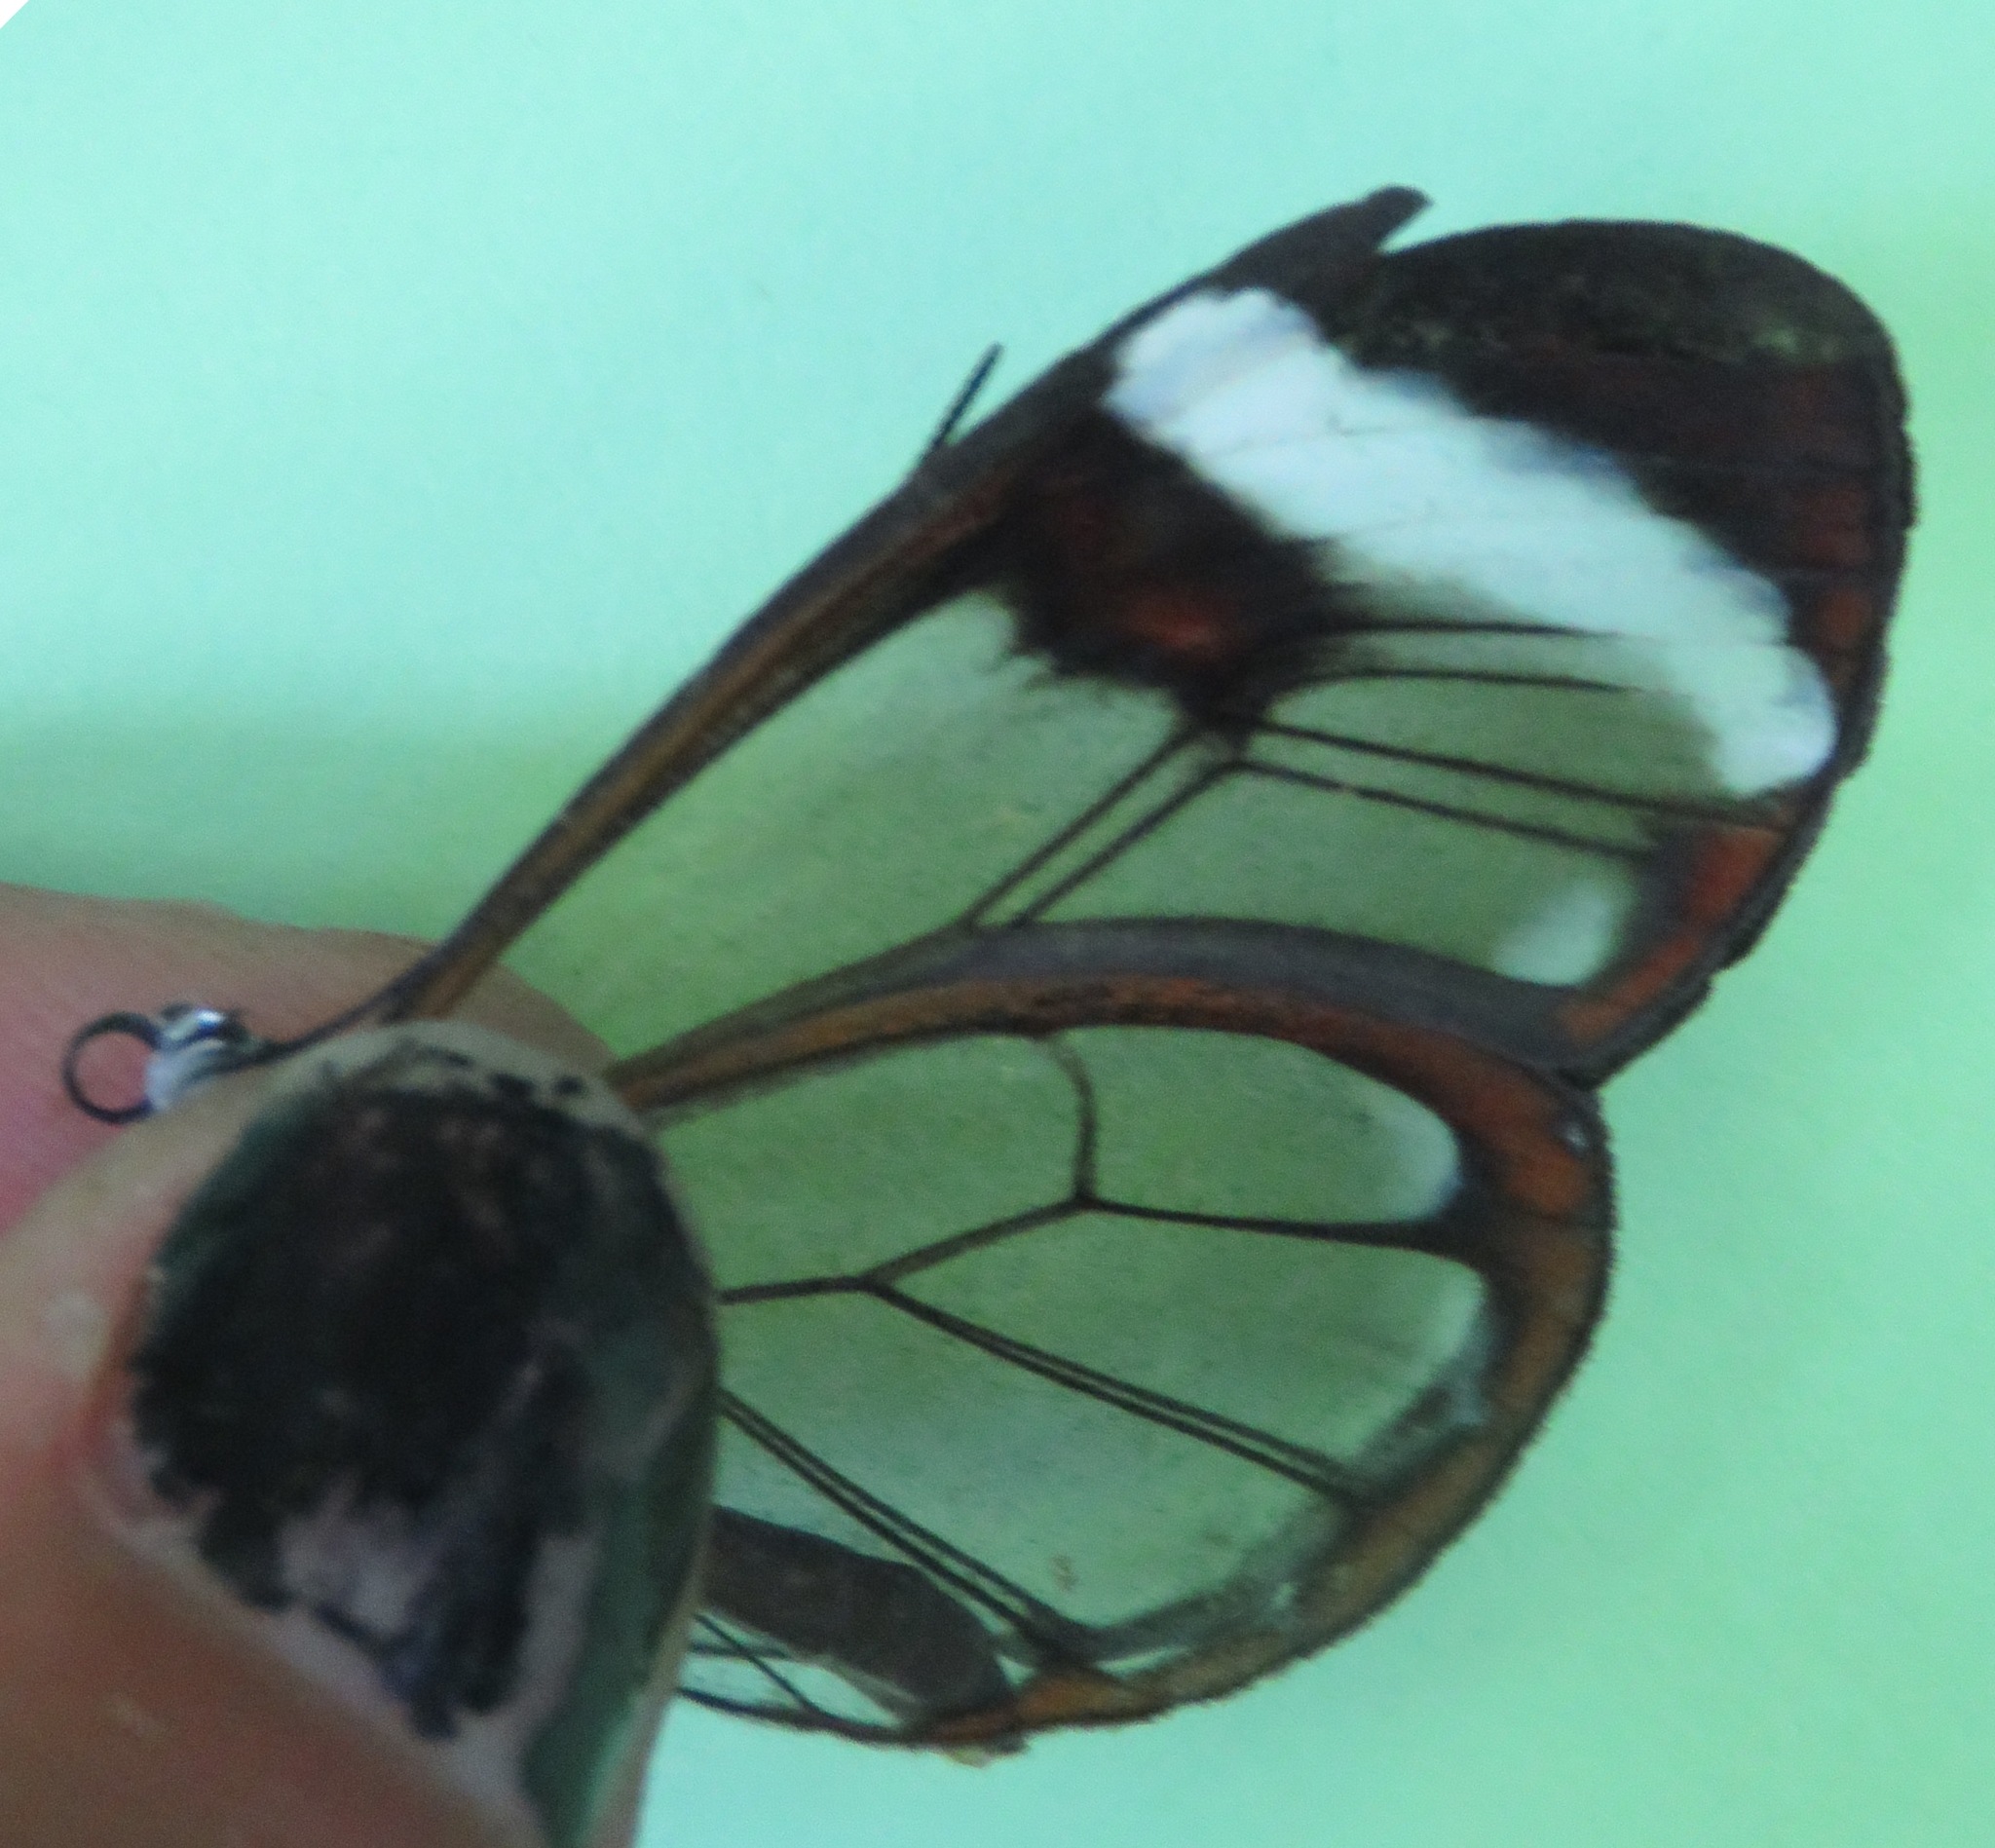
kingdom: Animalia
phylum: Arthropoda
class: Insecta
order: Lepidoptera
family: Nymphalidae
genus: Greta
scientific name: Greta morgane
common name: Thick-tipped greta
